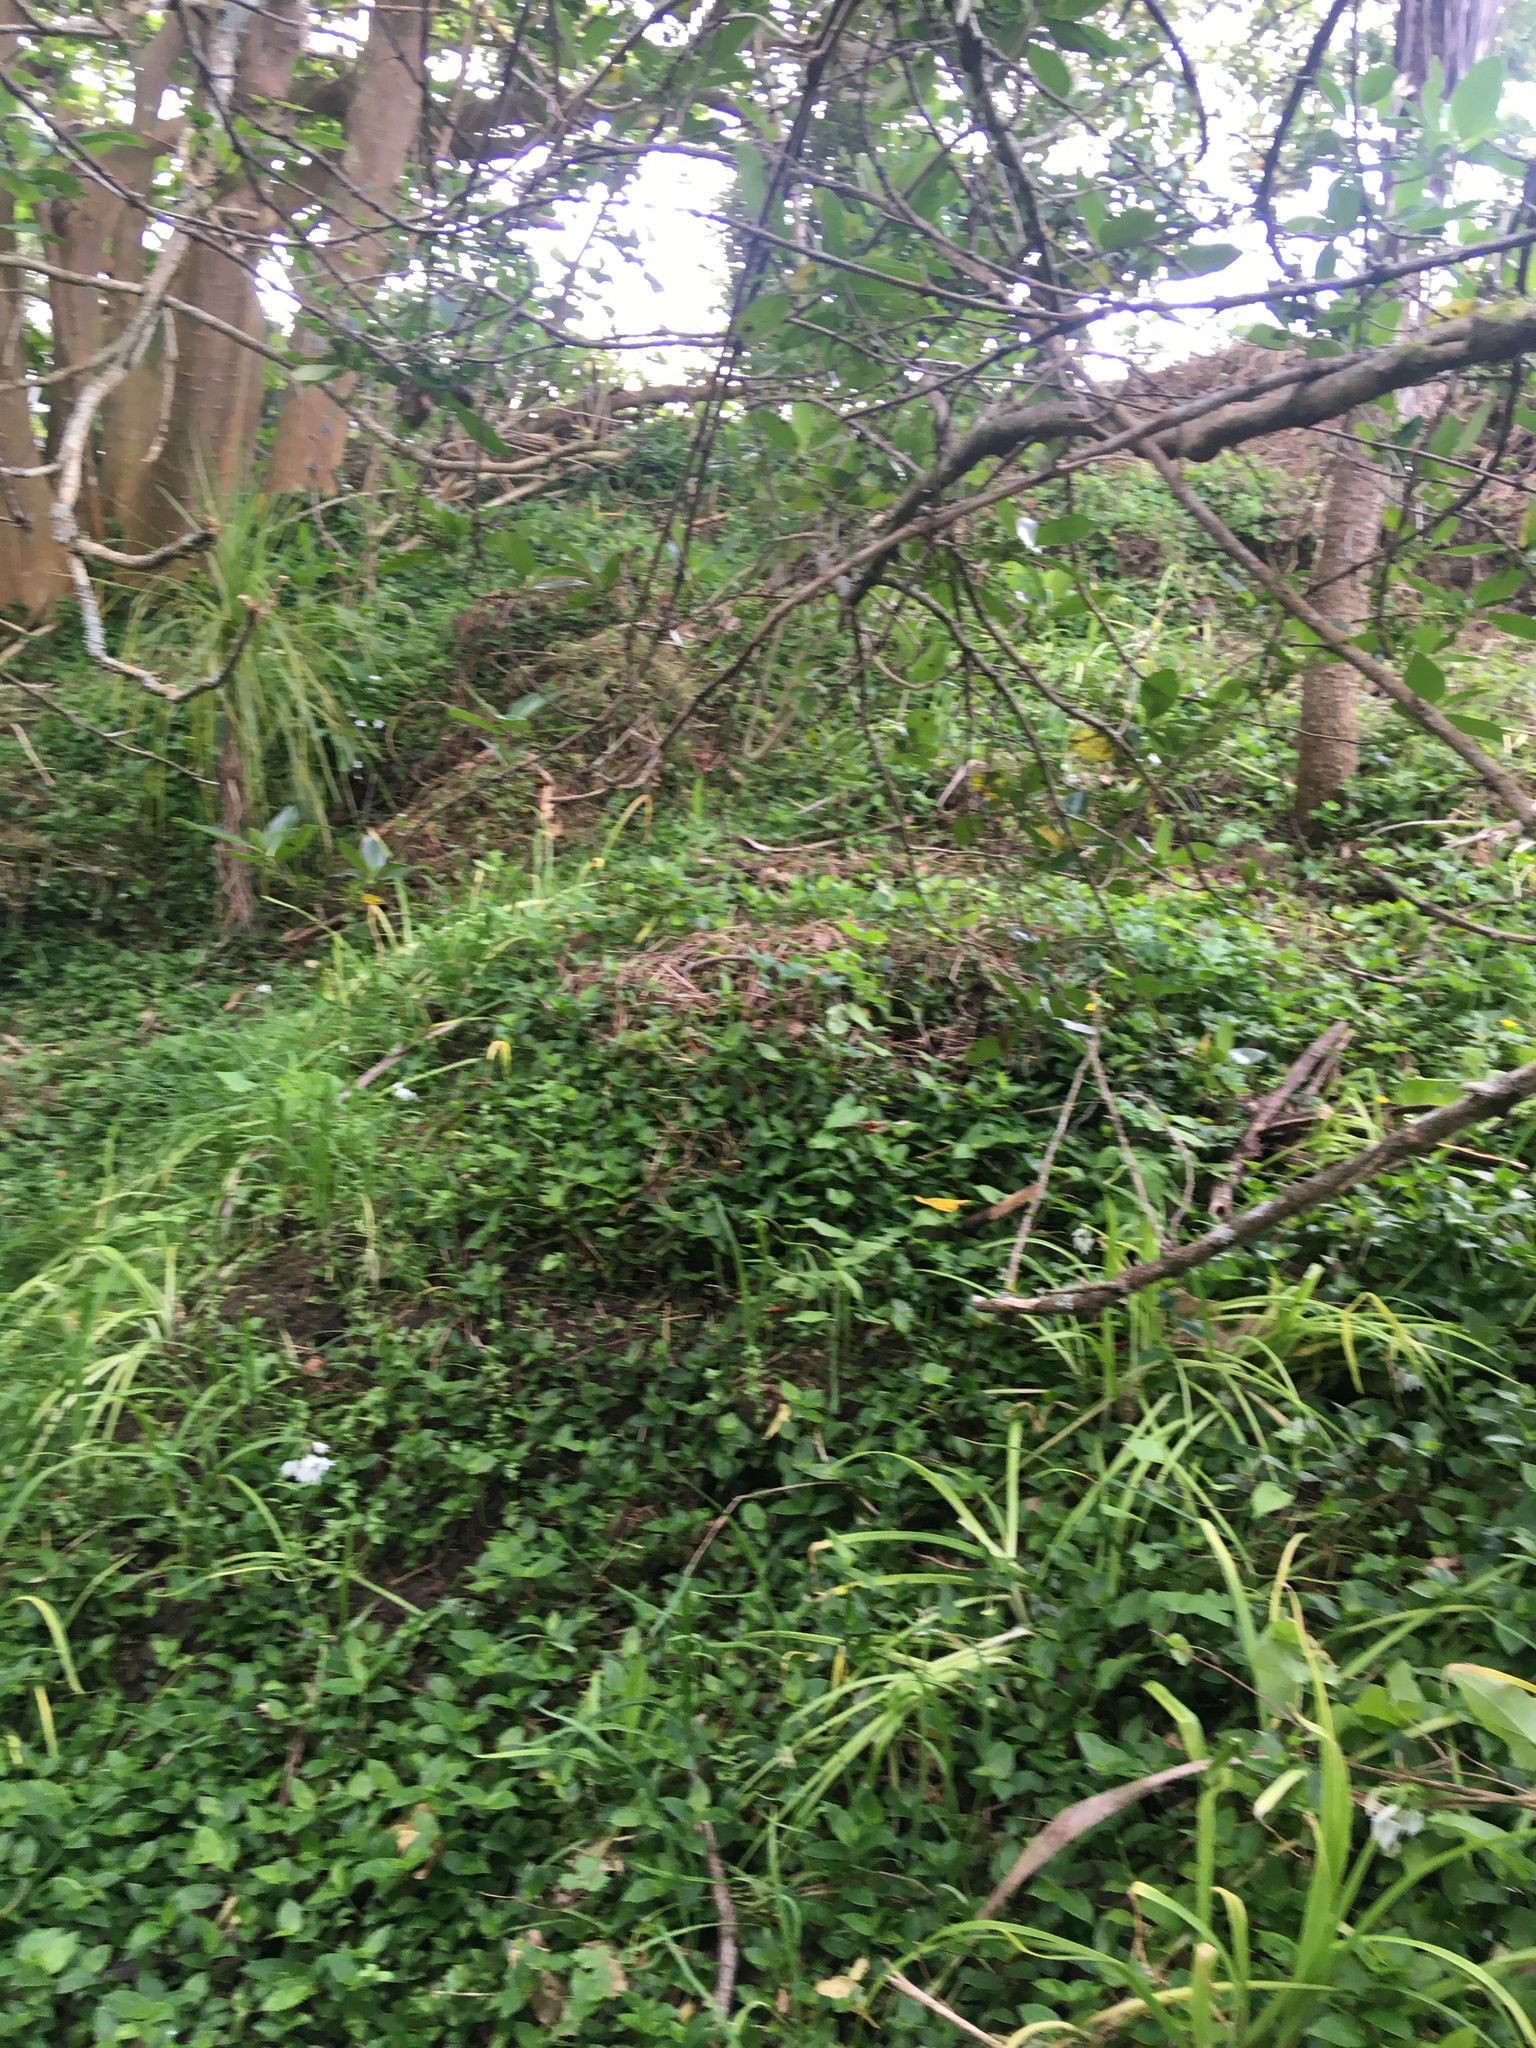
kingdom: Plantae
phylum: Tracheophyta
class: Liliopsida
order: Asparagales
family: Amaryllidaceae
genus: Allium
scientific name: Allium triquetrum
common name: Three-cornered garlic
